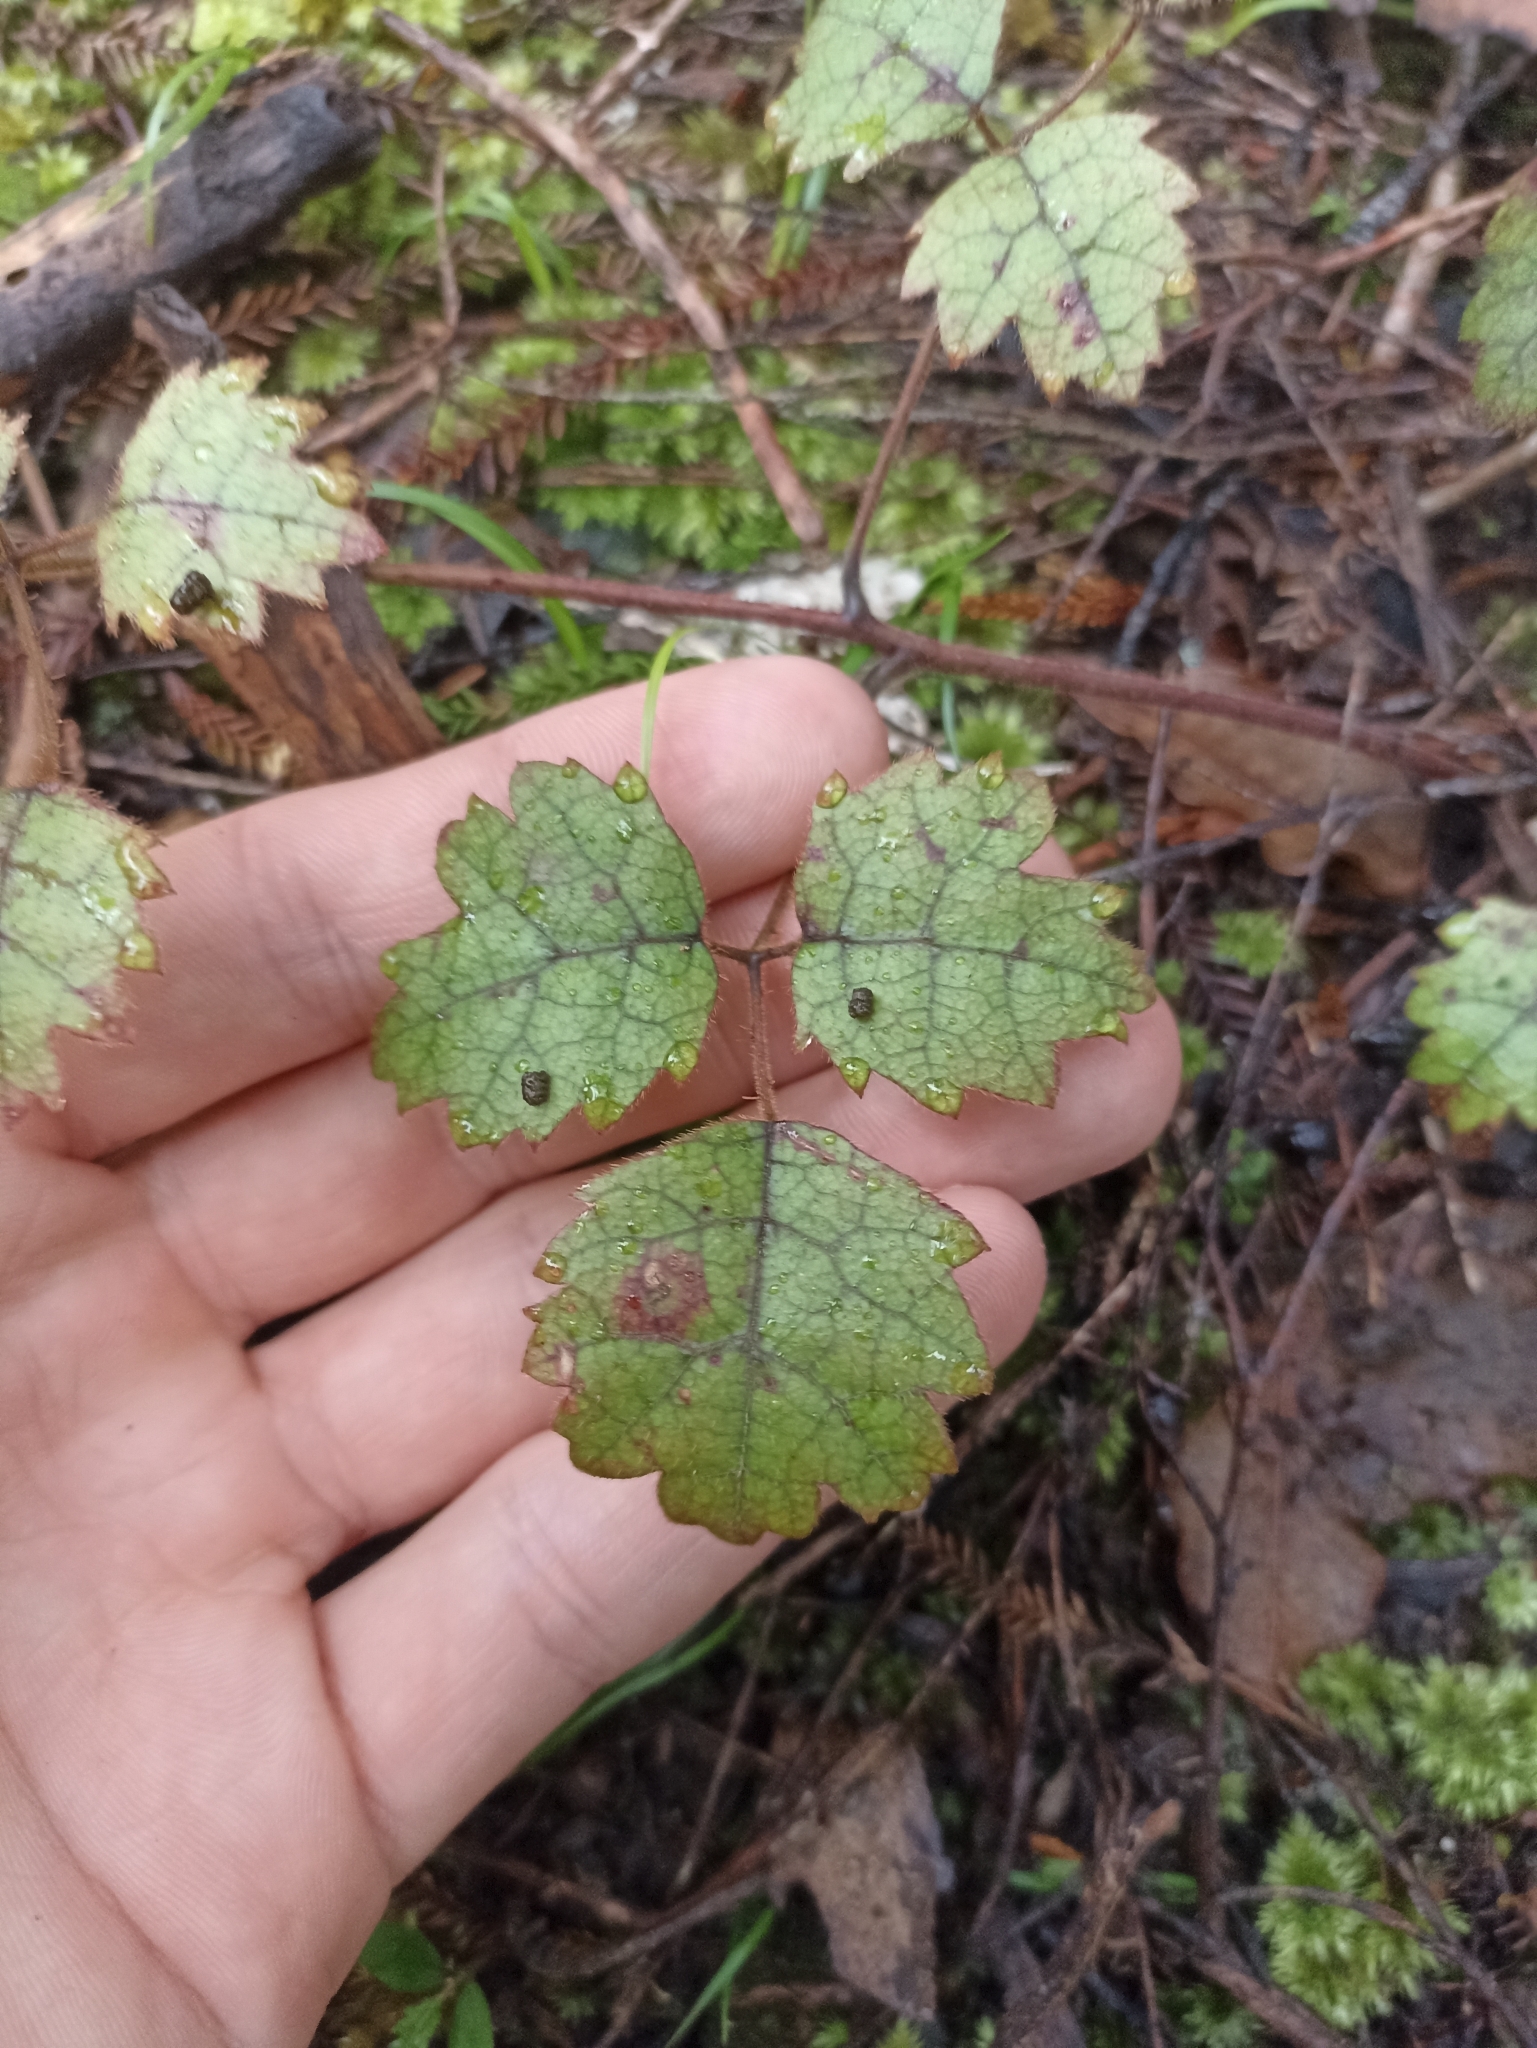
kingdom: Plantae
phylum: Tracheophyta
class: Magnoliopsida
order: Rosales
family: Rosaceae
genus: Rubus
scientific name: Rubus australis
